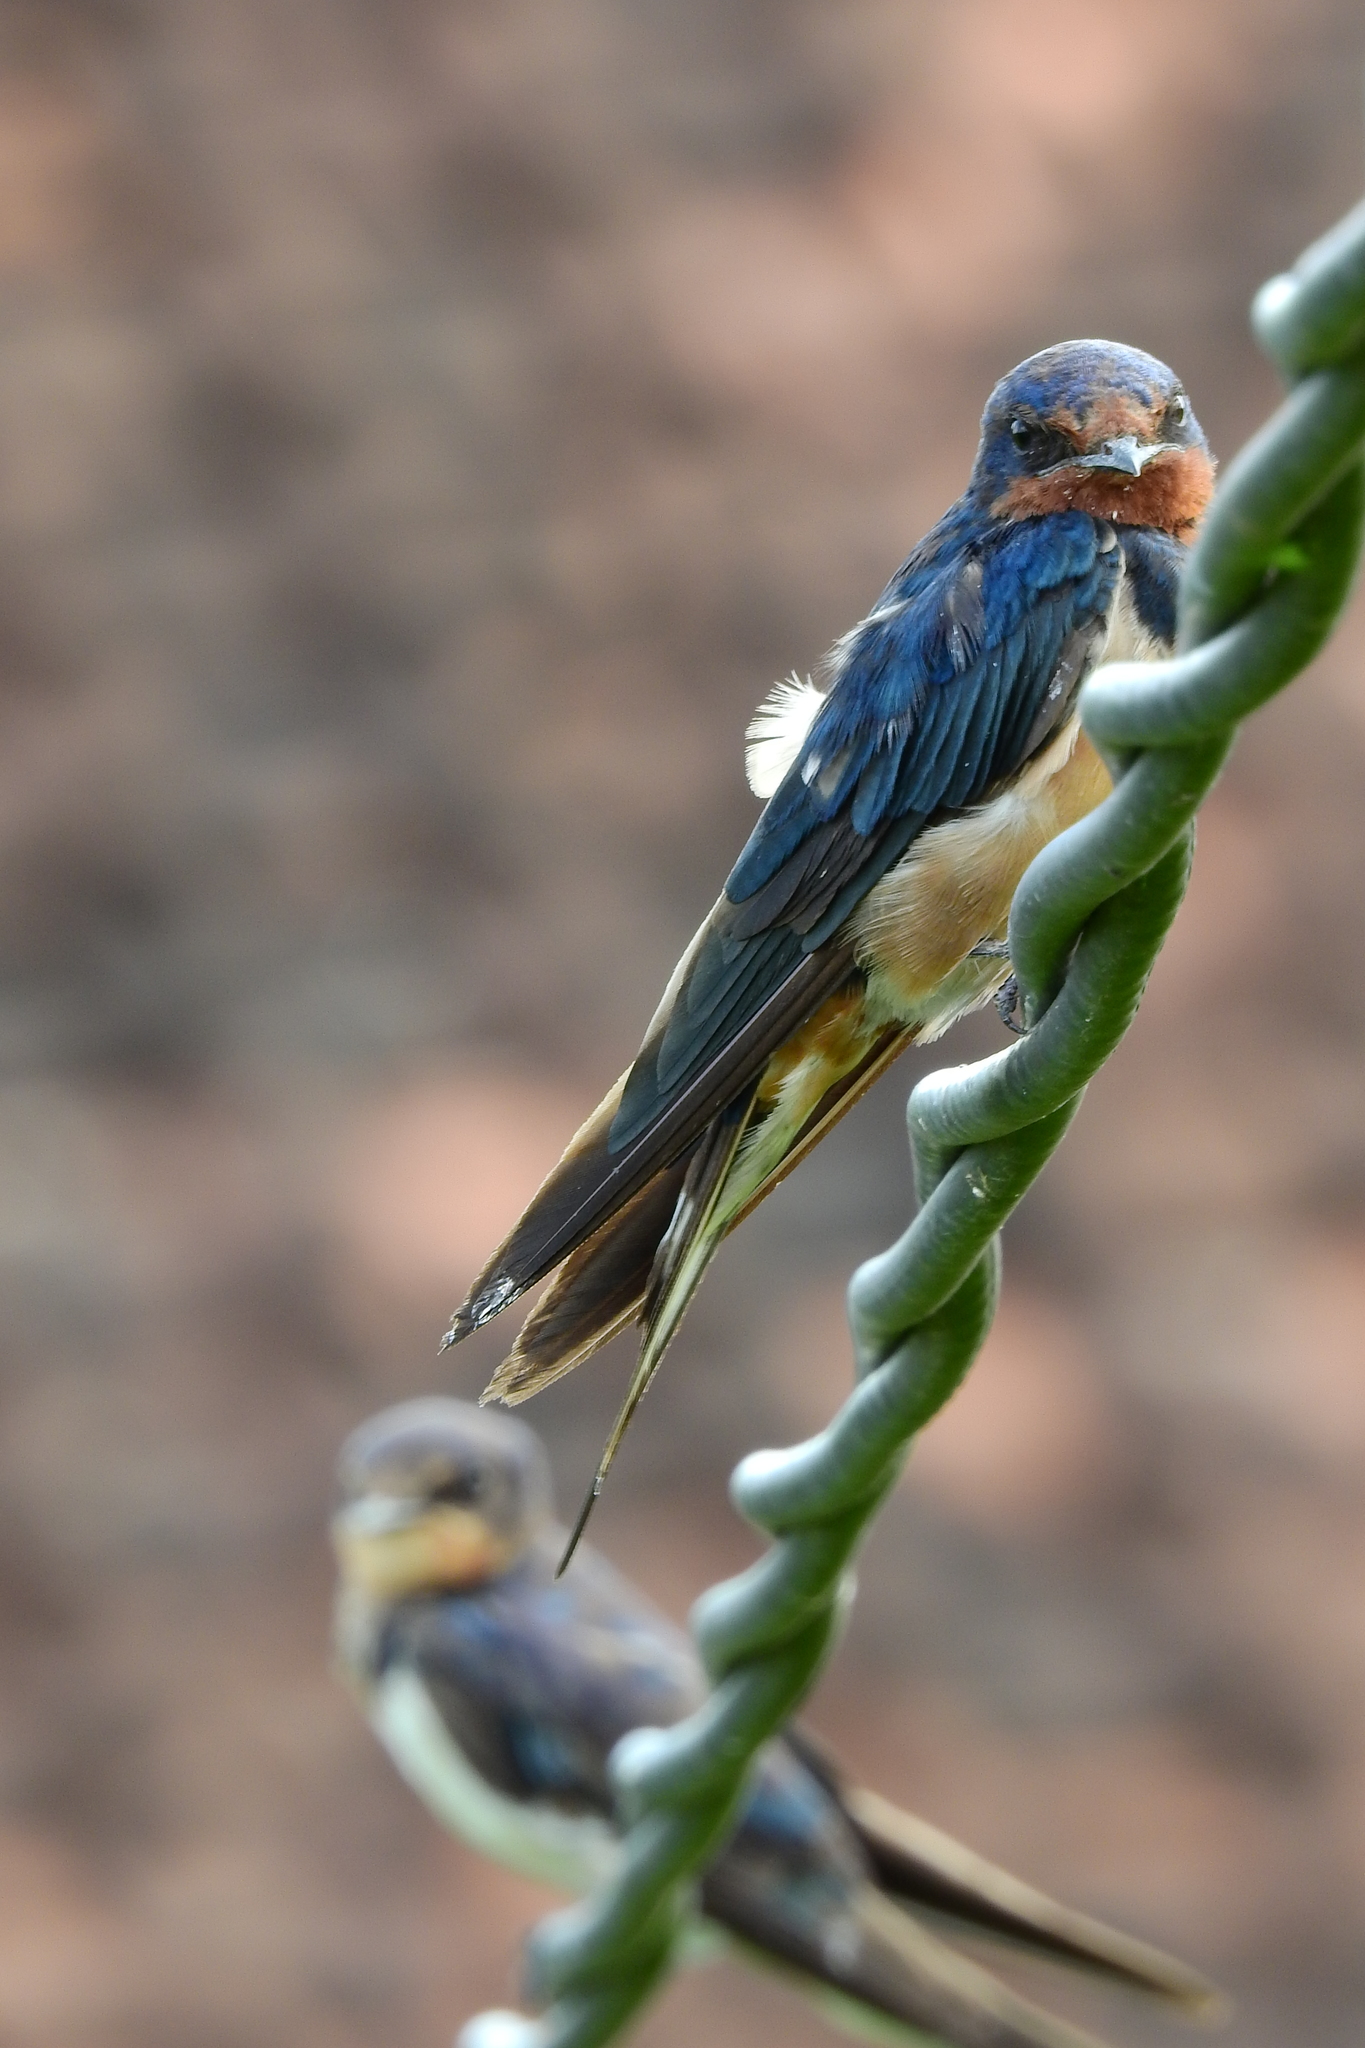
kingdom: Animalia
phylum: Chordata
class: Aves
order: Passeriformes
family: Hirundinidae
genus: Hirundo
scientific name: Hirundo rustica
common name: Barn swallow
